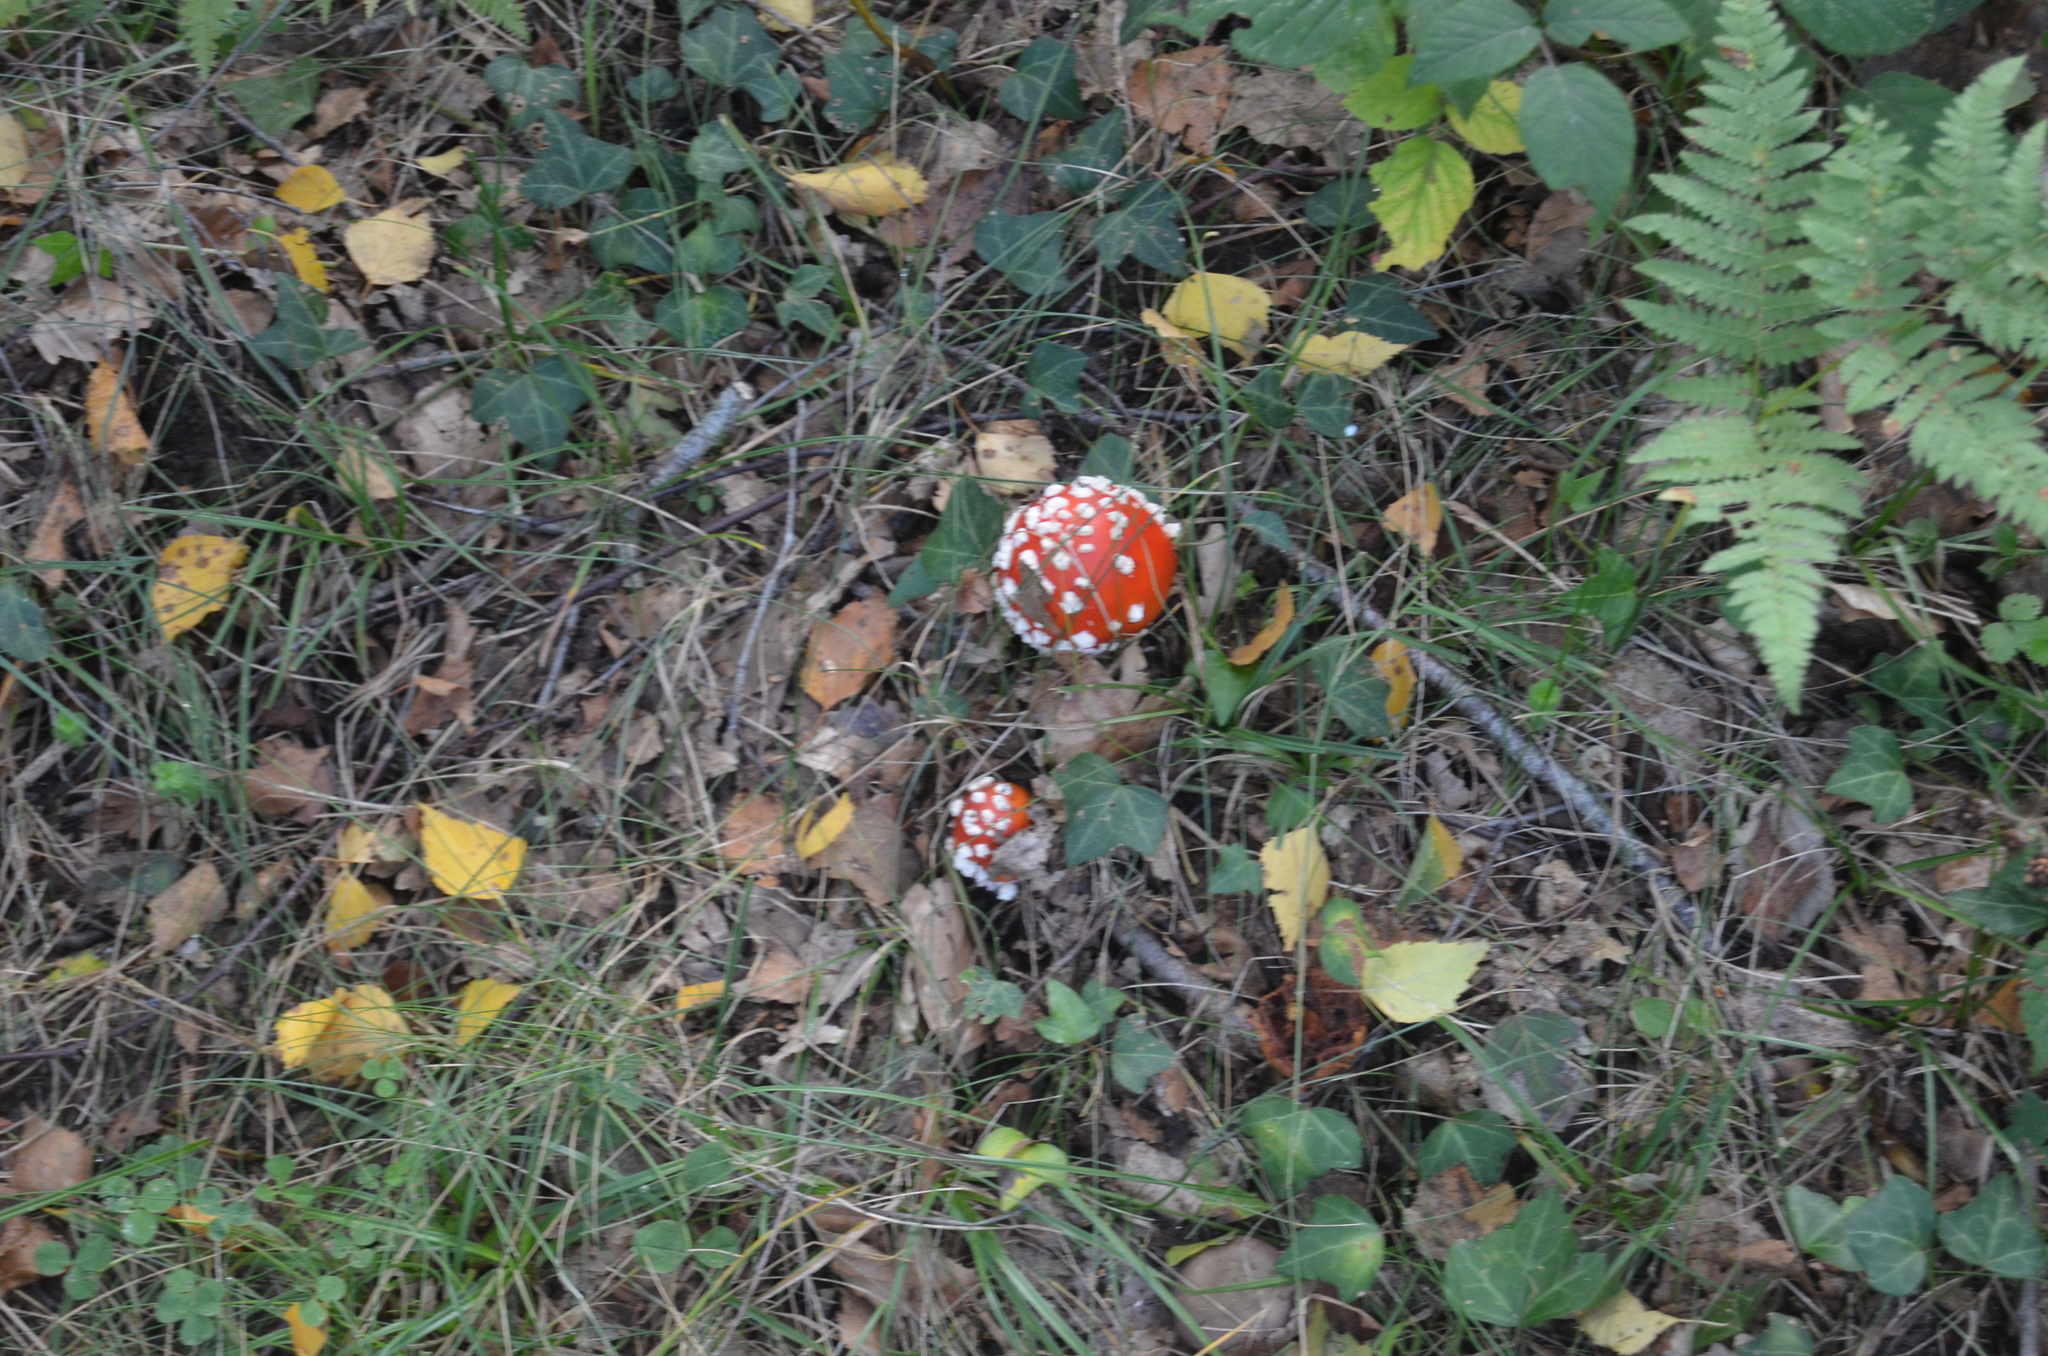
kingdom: Fungi
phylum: Basidiomycota
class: Agaricomycetes
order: Agaricales
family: Amanitaceae
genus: Amanita
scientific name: Amanita muscaria
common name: Fly agaric
